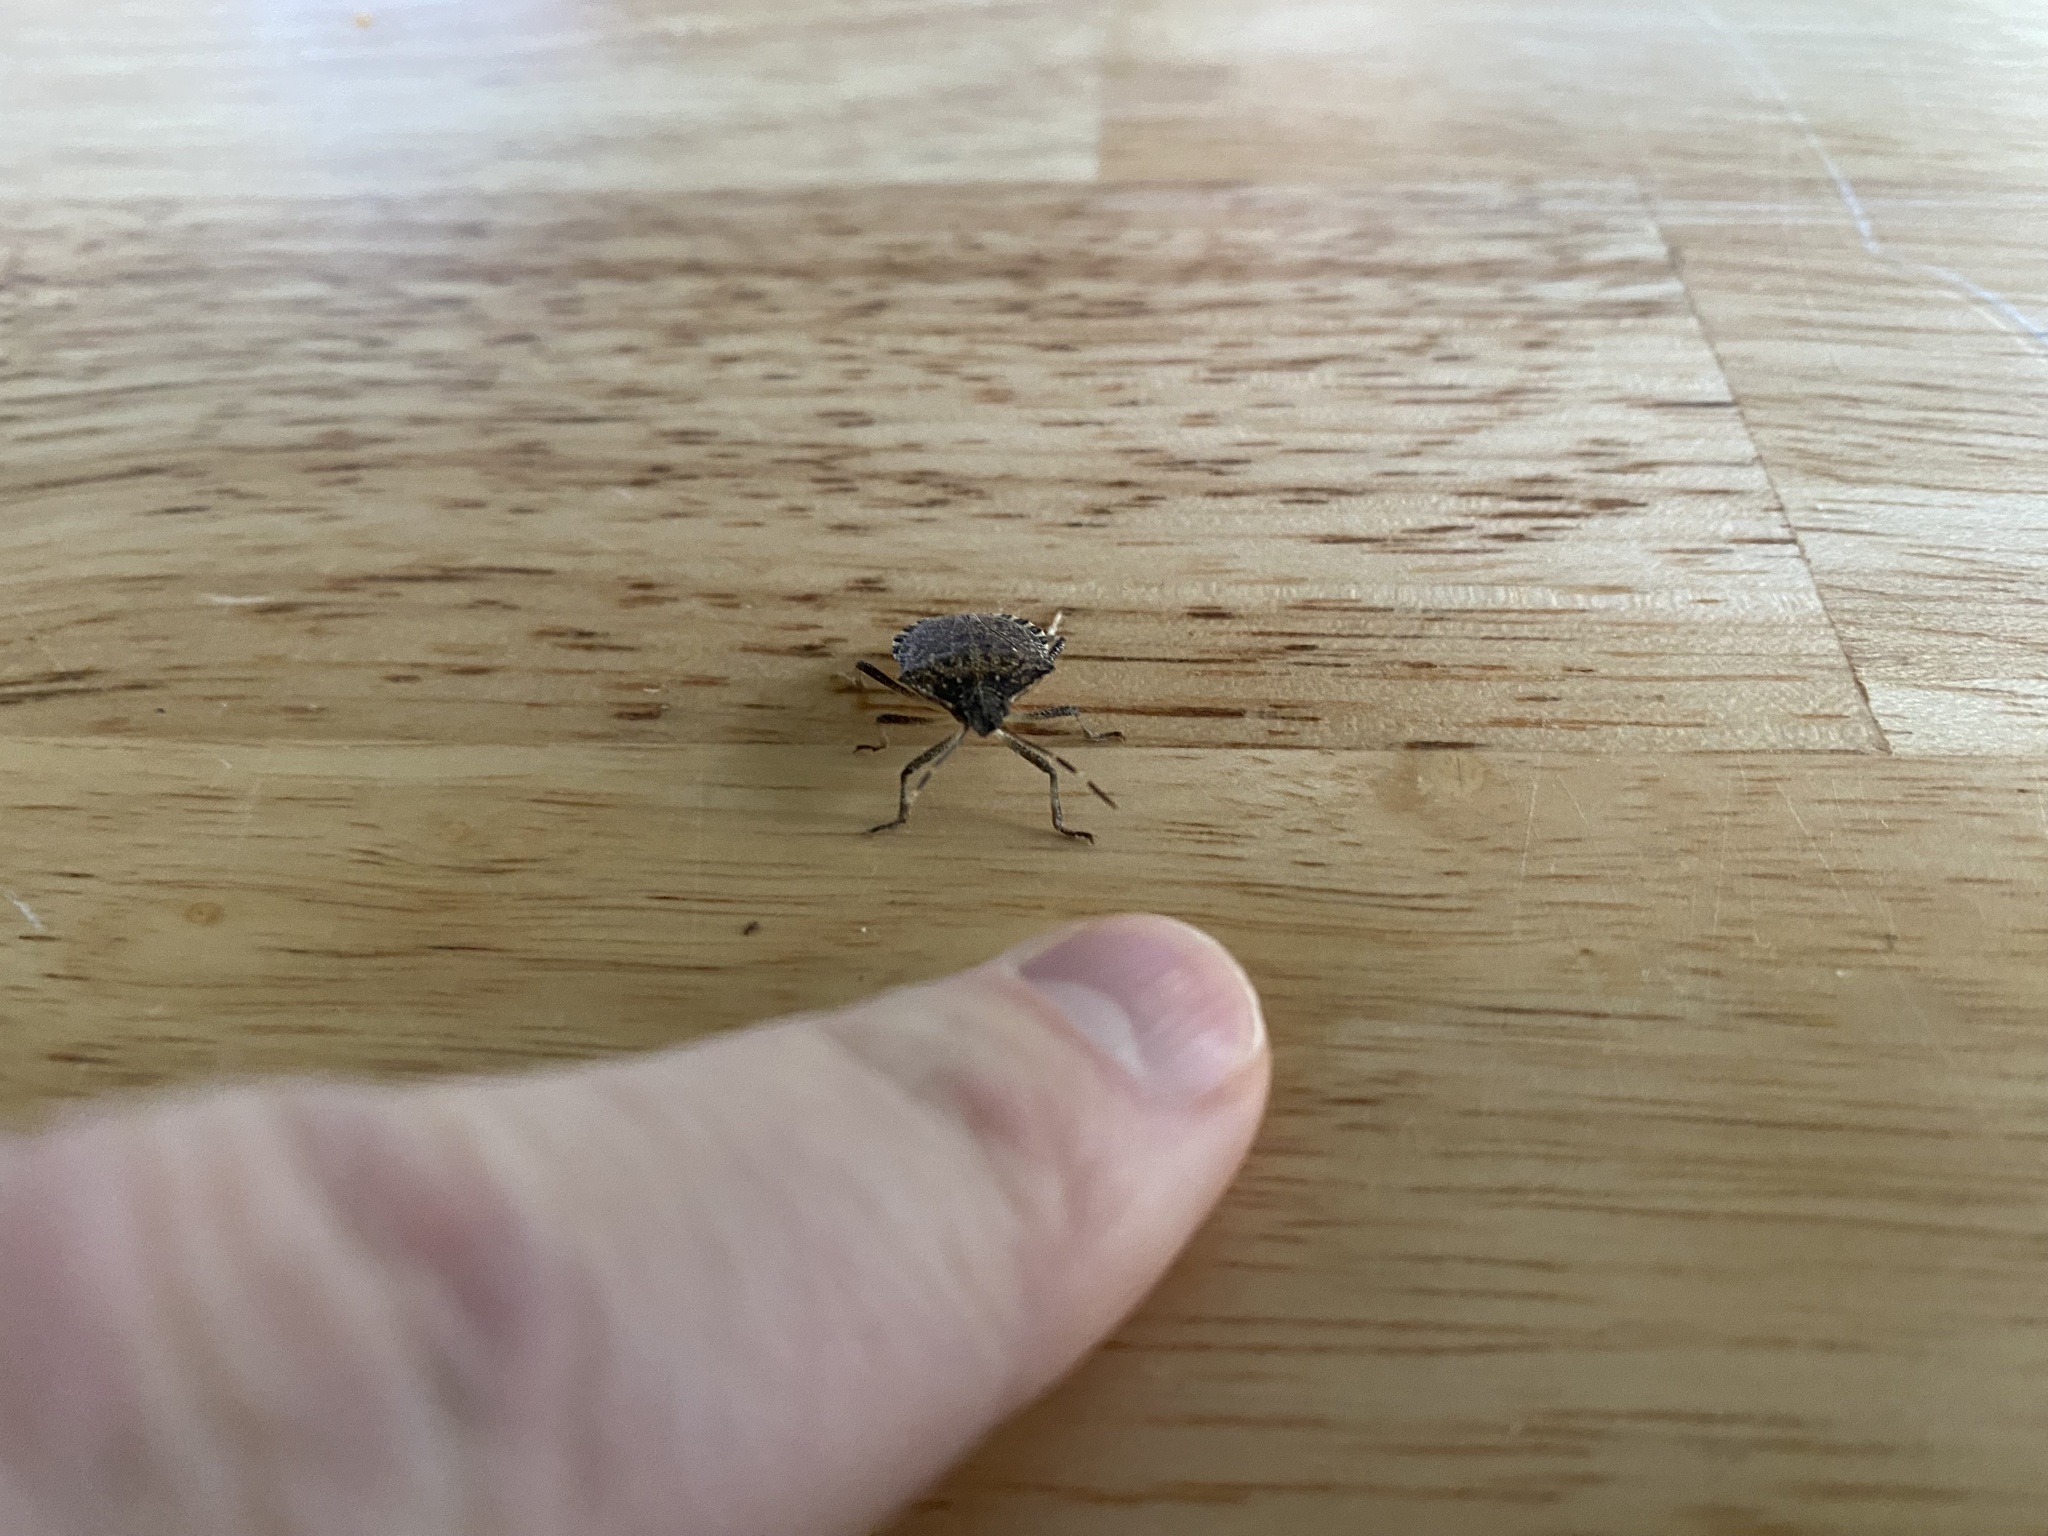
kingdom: Animalia
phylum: Arthropoda
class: Insecta
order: Hemiptera
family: Pentatomidae
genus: Halyomorpha
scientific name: Halyomorpha halys
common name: Brown marmorated stink bug
